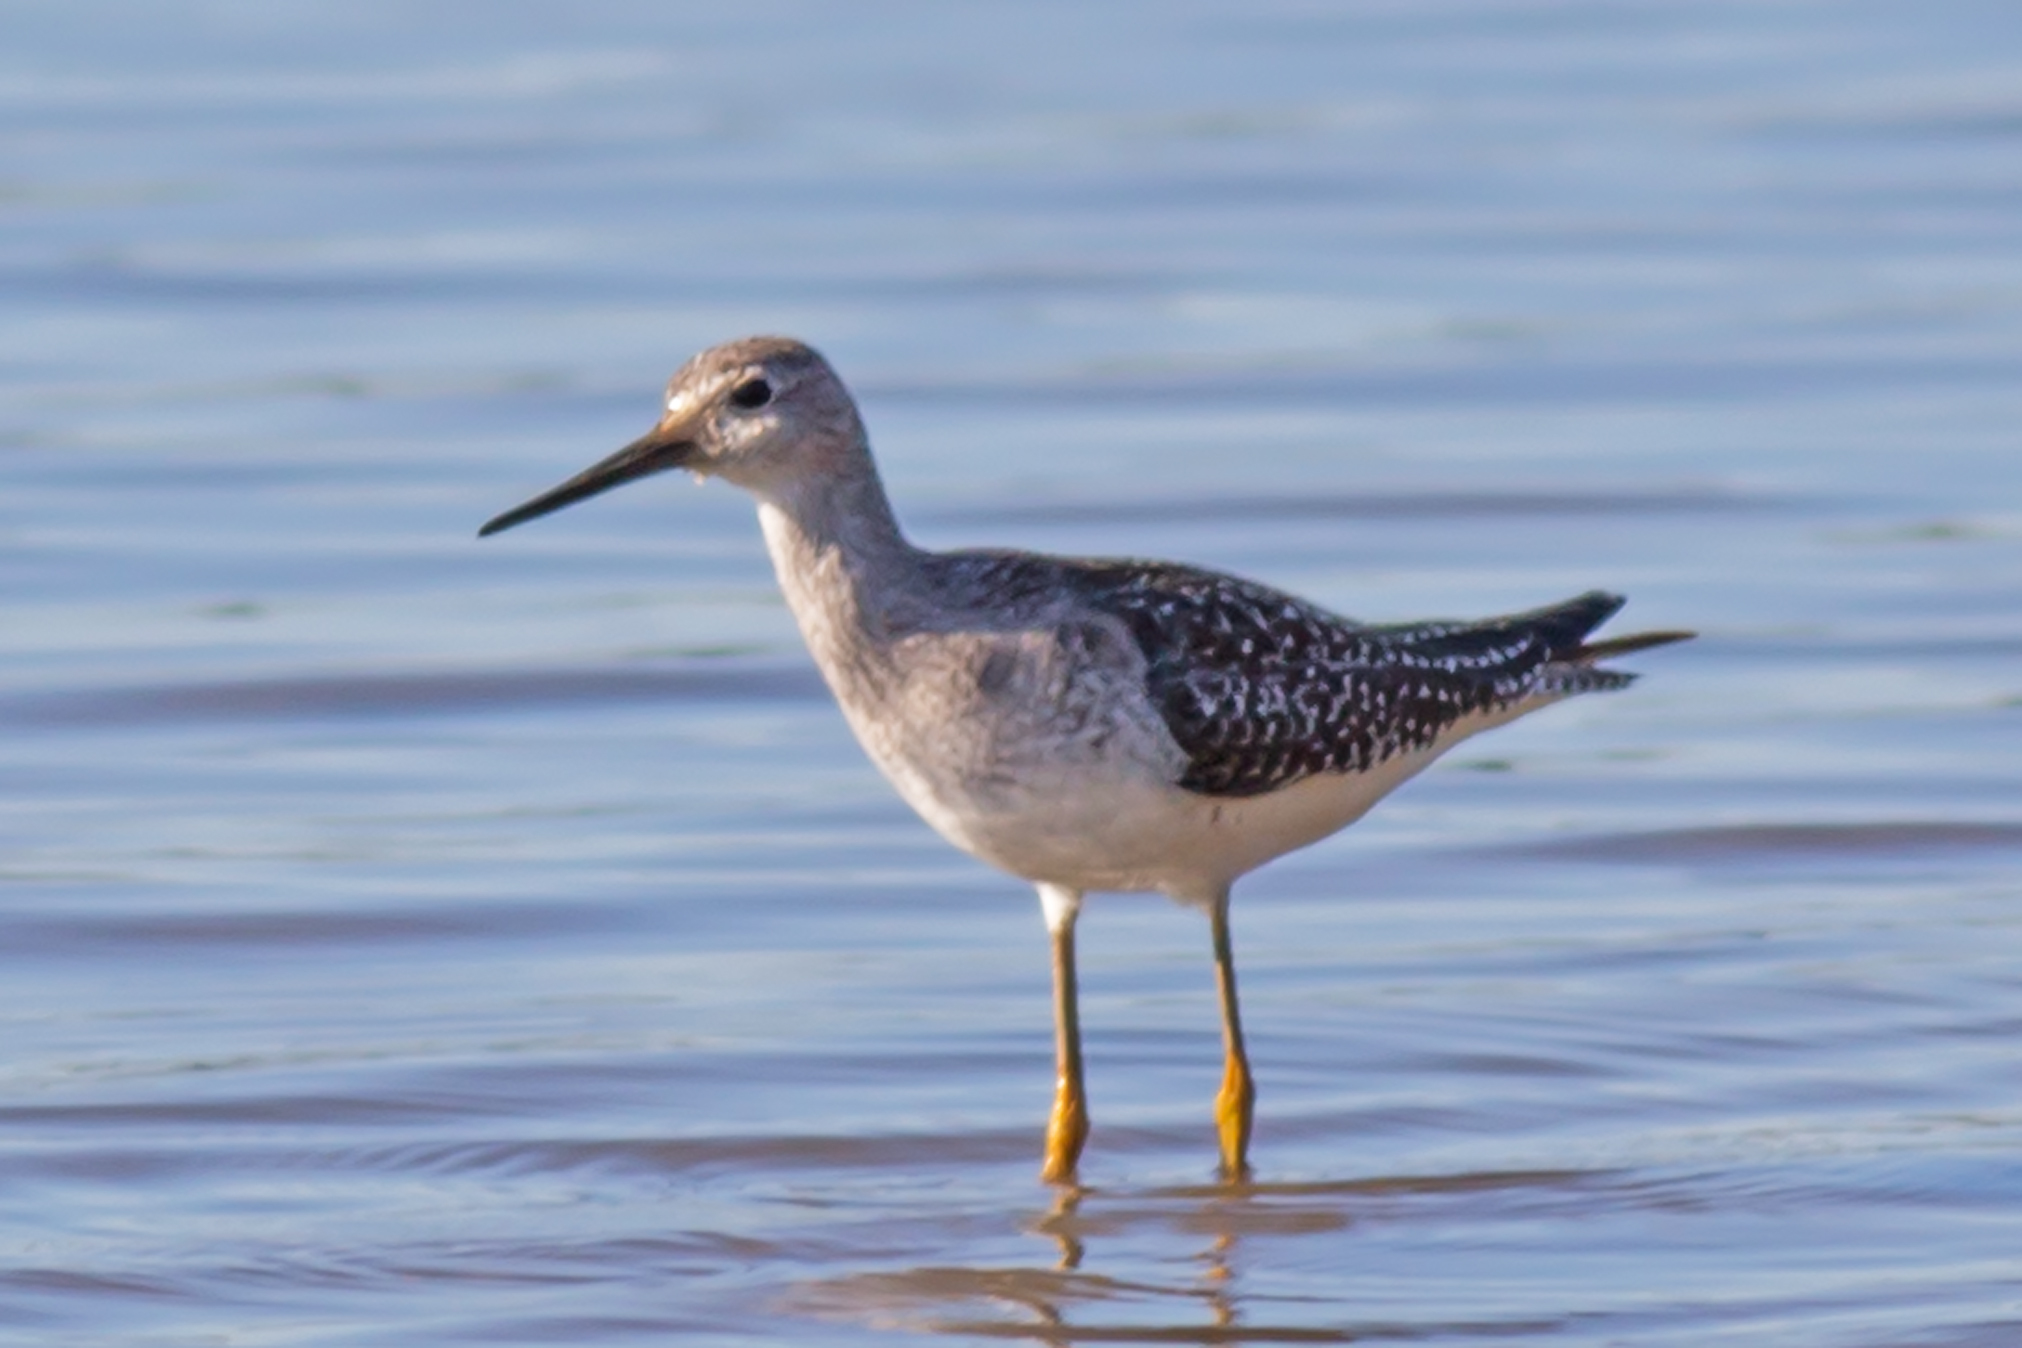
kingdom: Animalia
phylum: Chordata
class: Aves
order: Charadriiformes
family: Scolopacidae
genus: Tringa
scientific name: Tringa flavipes
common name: Lesser yellowlegs
